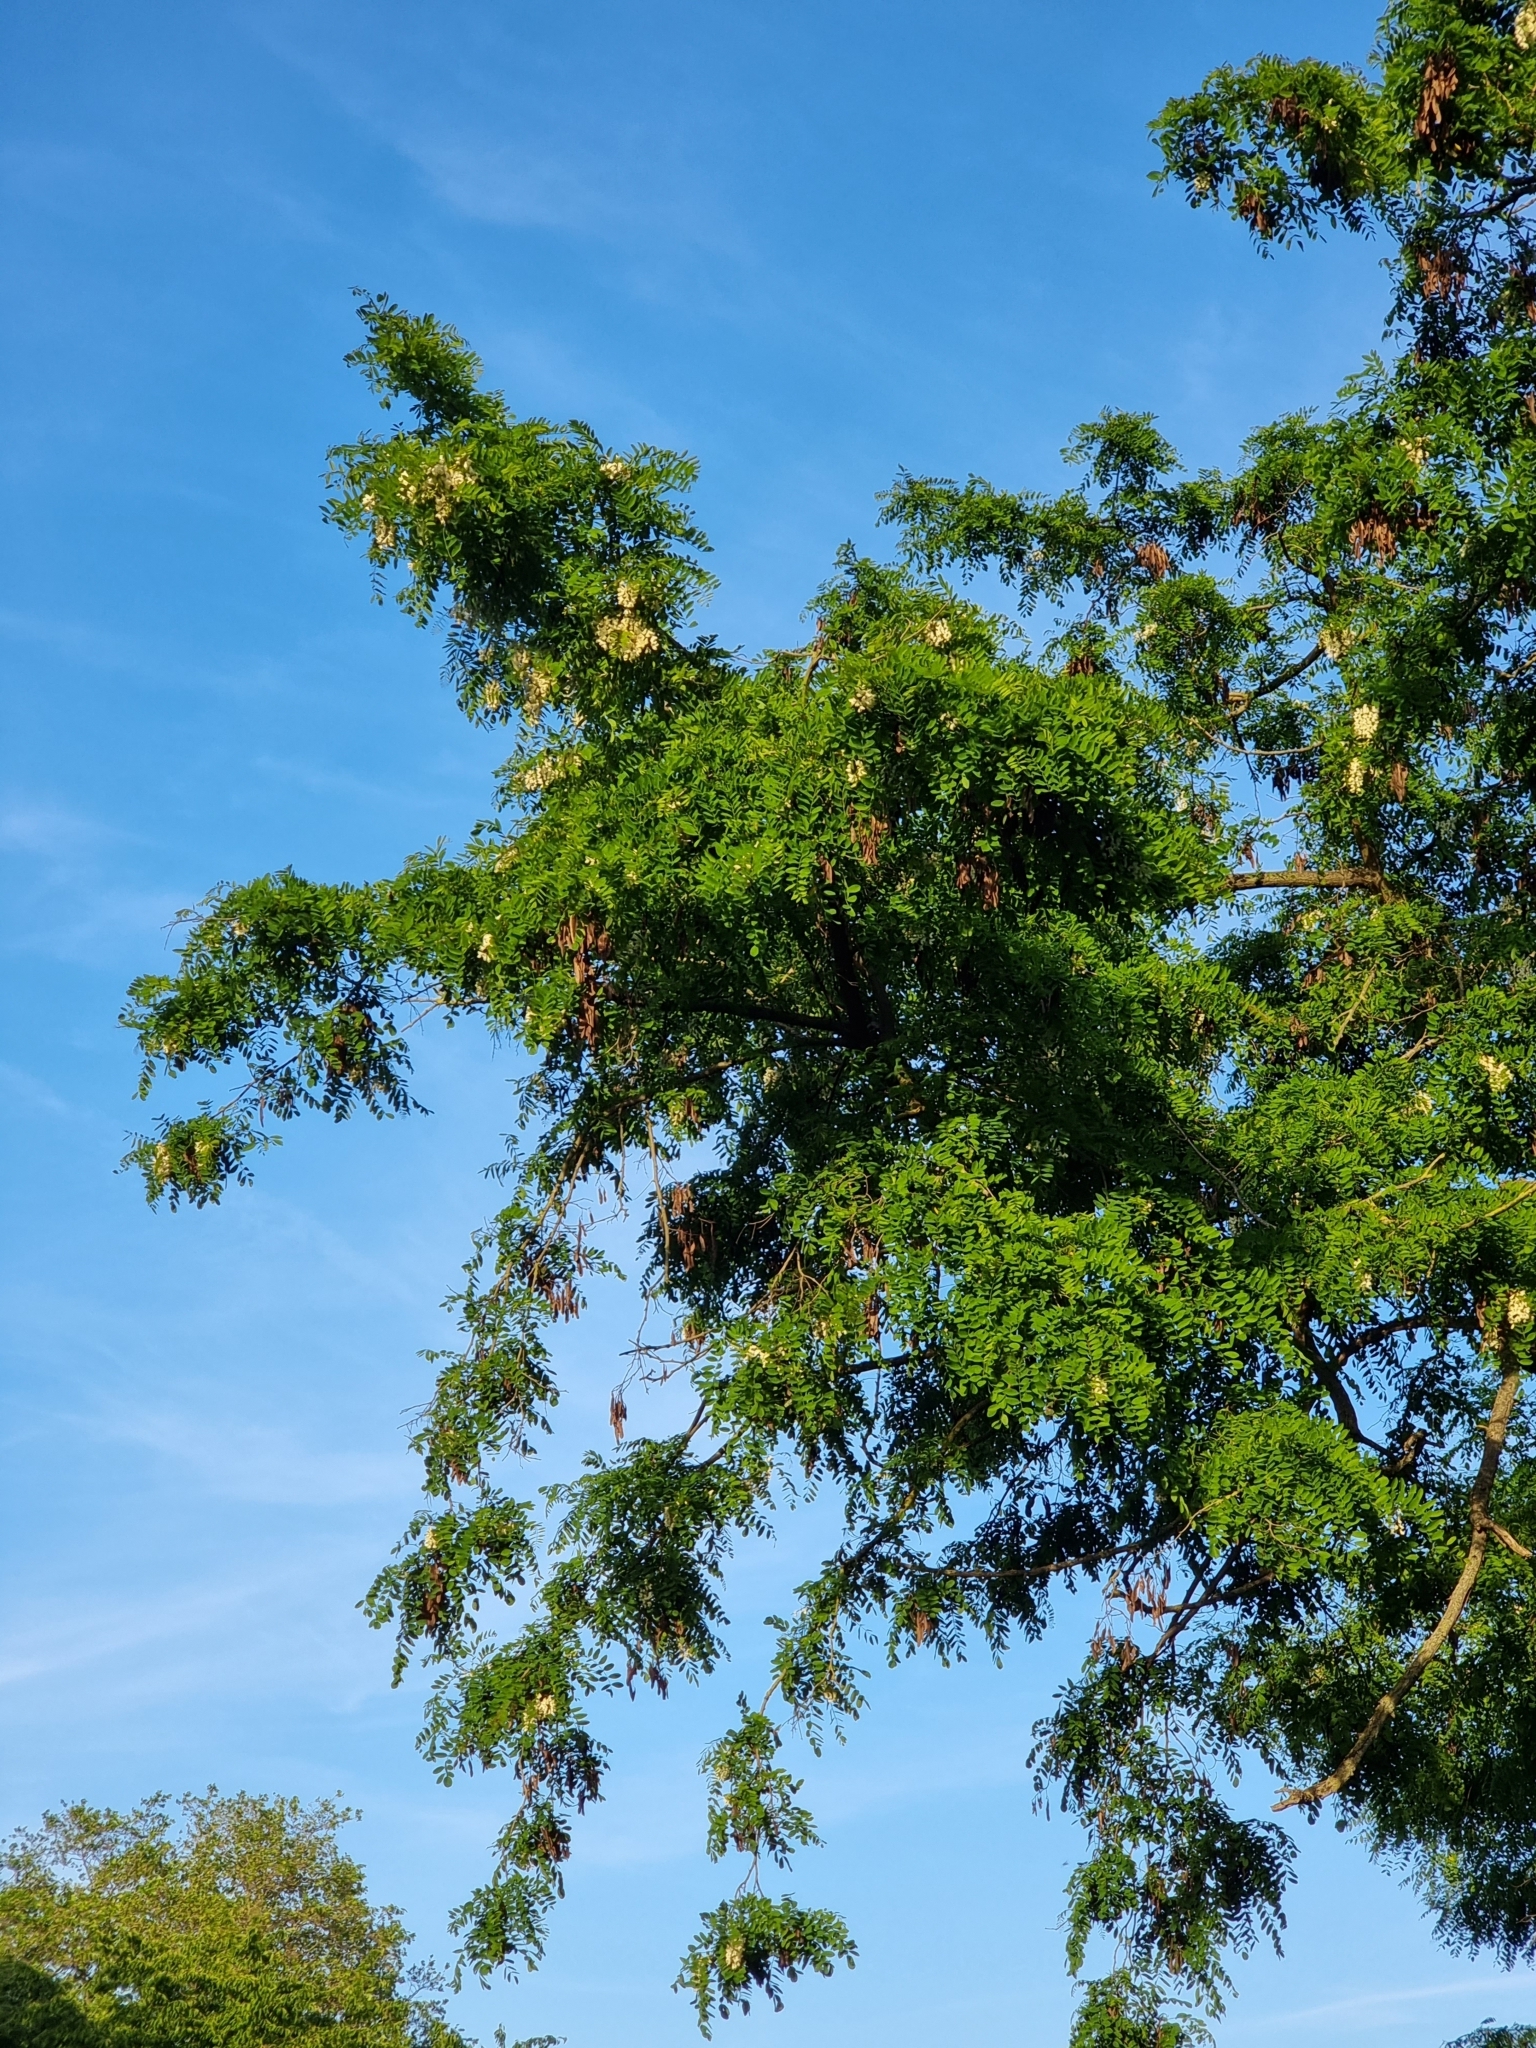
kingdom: Plantae
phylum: Tracheophyta
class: Magnoliopsida
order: Fabales
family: Fabaceae
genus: Robinia
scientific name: Robinia pseudoacacia
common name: Black locust
